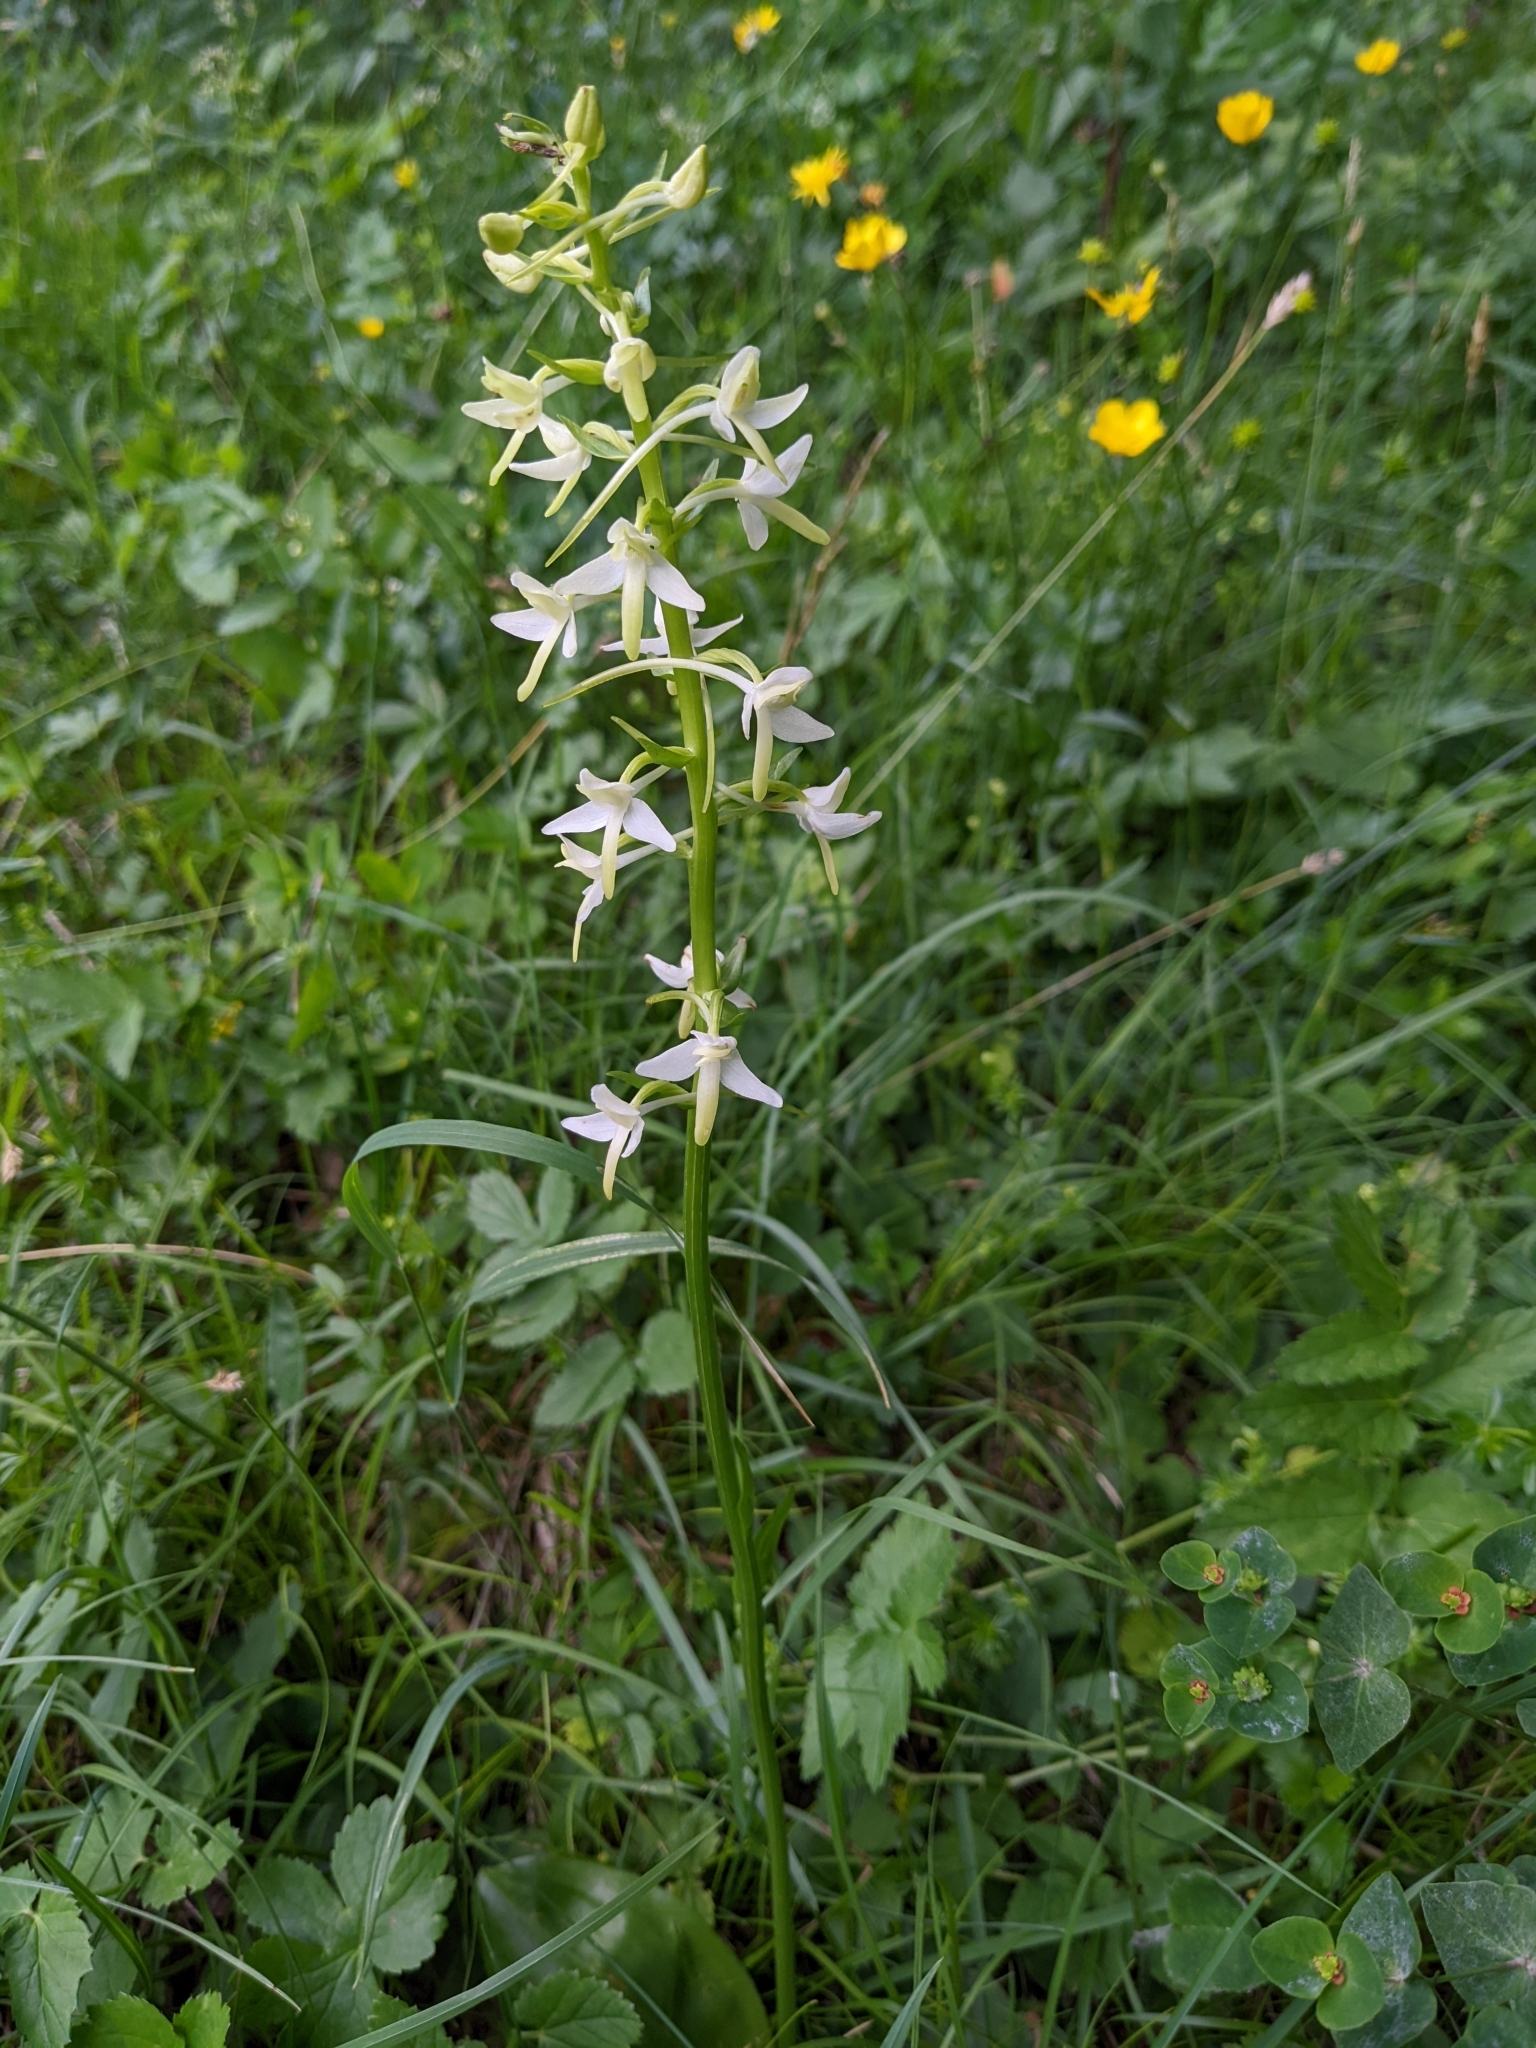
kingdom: Plantae
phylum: Tracheophyta
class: Liliopsida
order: Asparagales
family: Orchidaceae
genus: Platanthera
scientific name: Platanthera bifolia
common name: Lesser butterfly-orchid
